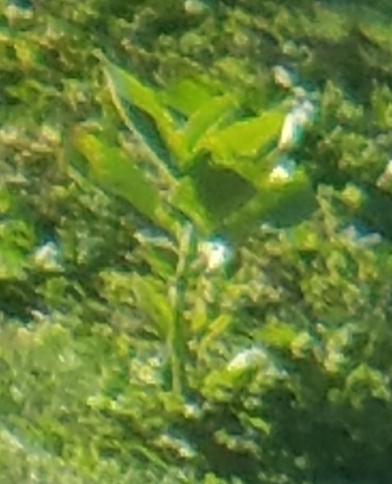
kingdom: Plantae
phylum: Tracheophyta
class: Magnoliopsida
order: Gentianales
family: Apocynaceae
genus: Asclepias
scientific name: Asclepias syriaca
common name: Common milkweed
